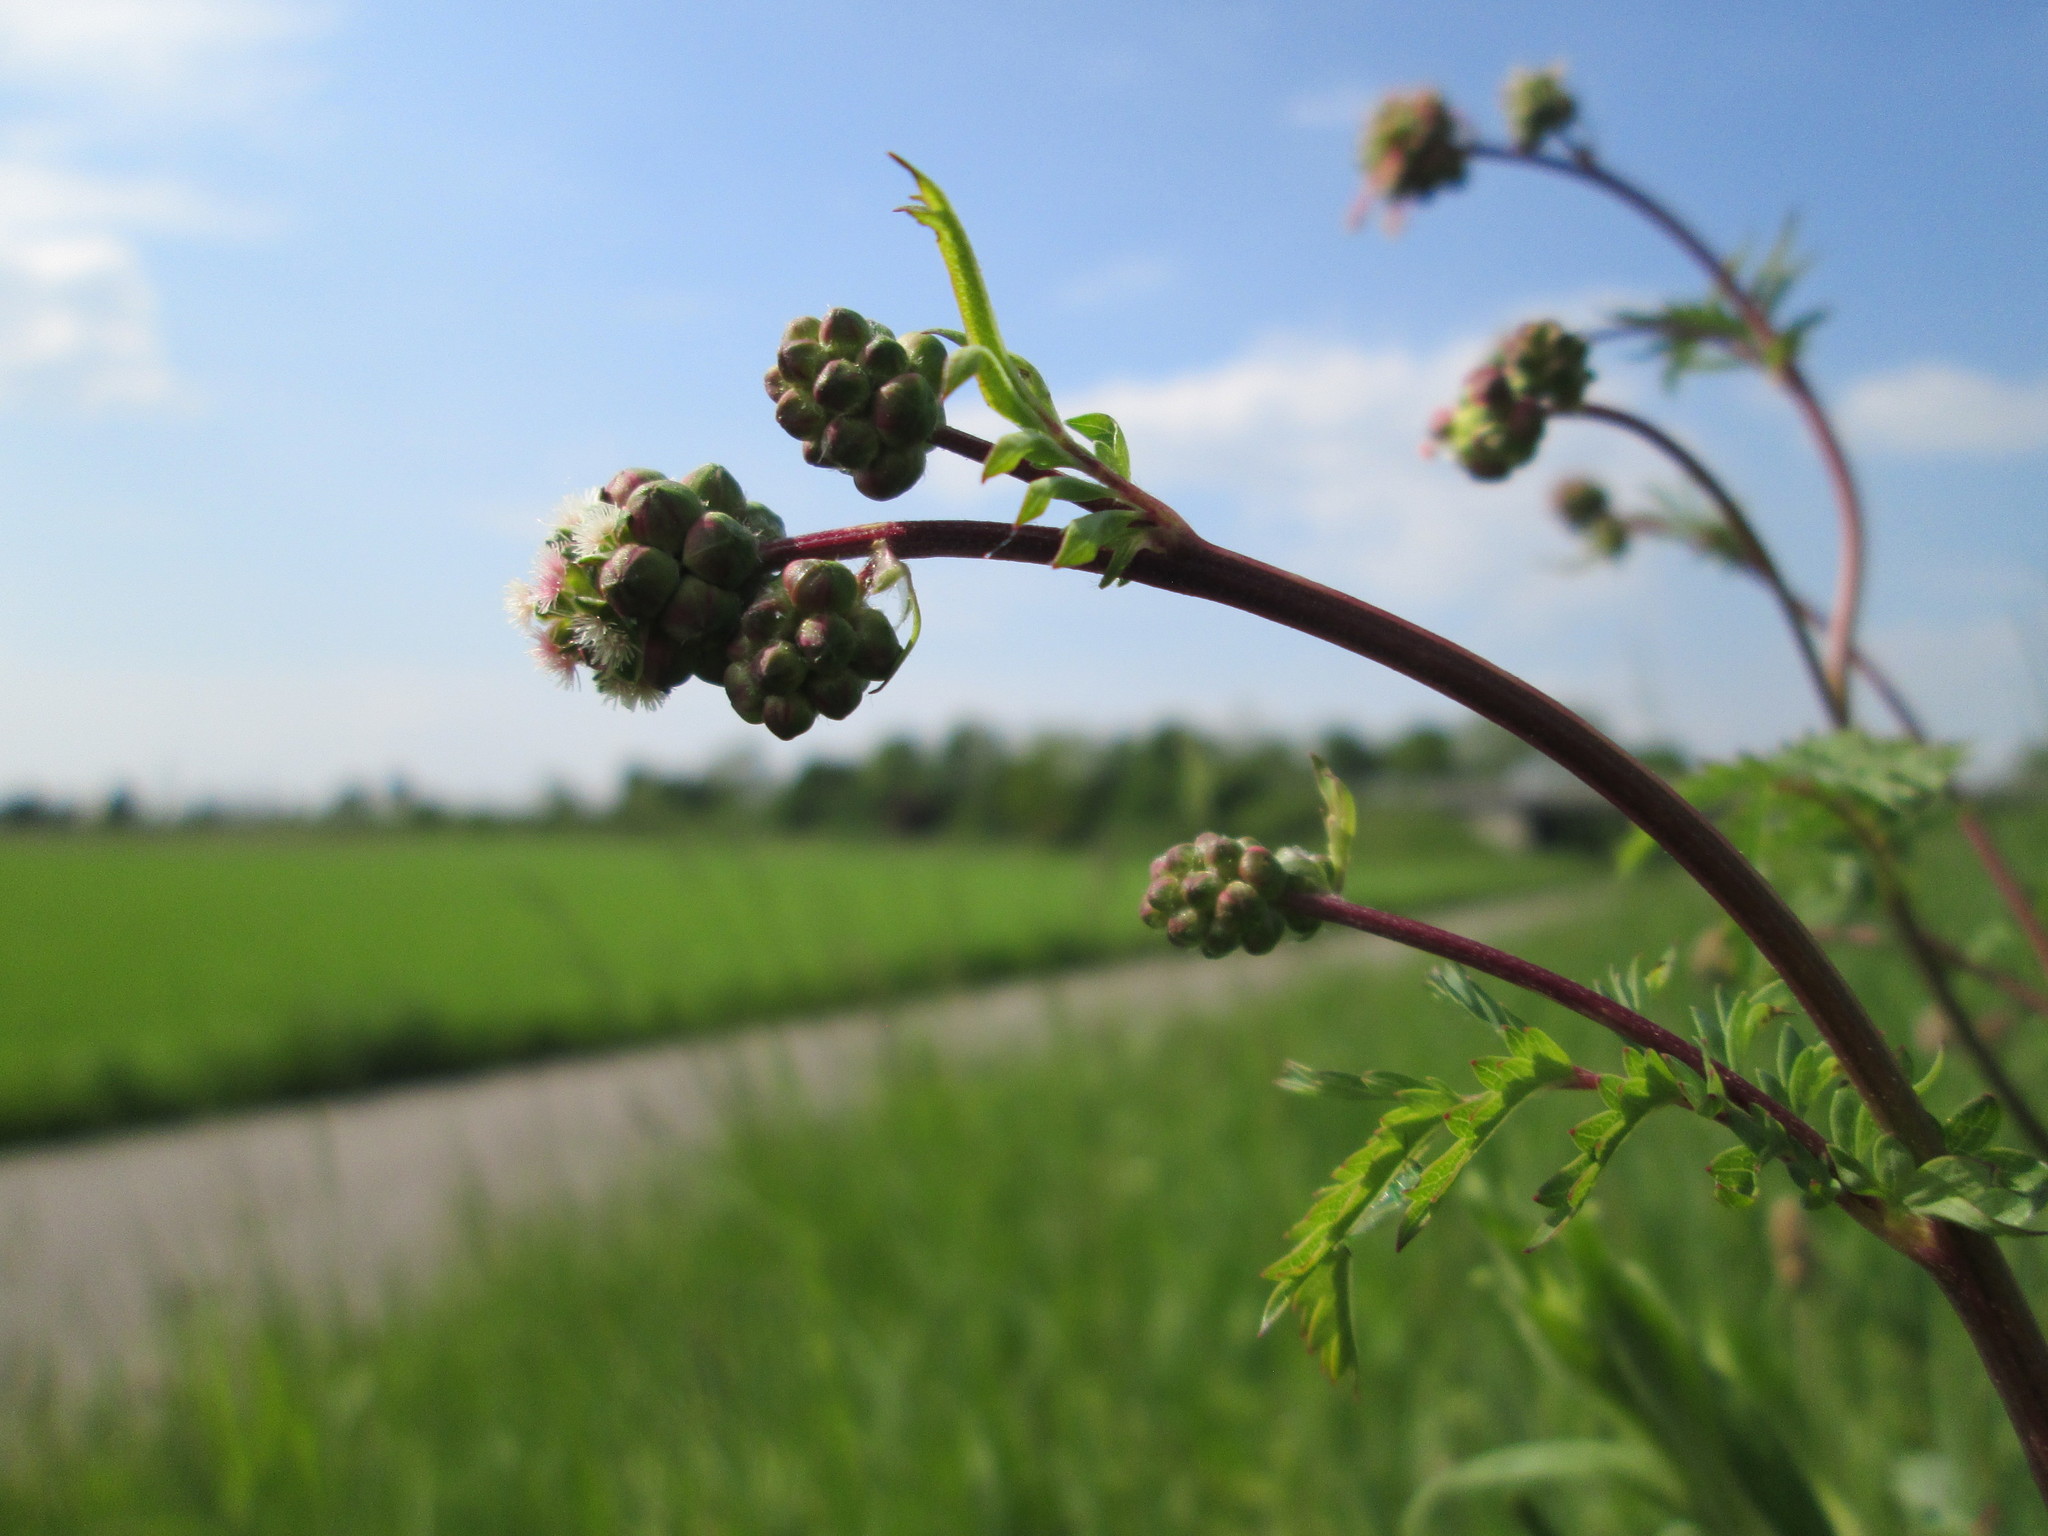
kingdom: Plantae
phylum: Tracheophyta
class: Magnoliopsida
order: Rosales
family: Rosaceae
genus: Poterium
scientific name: Poterium sanguisorba
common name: Salad burnet
